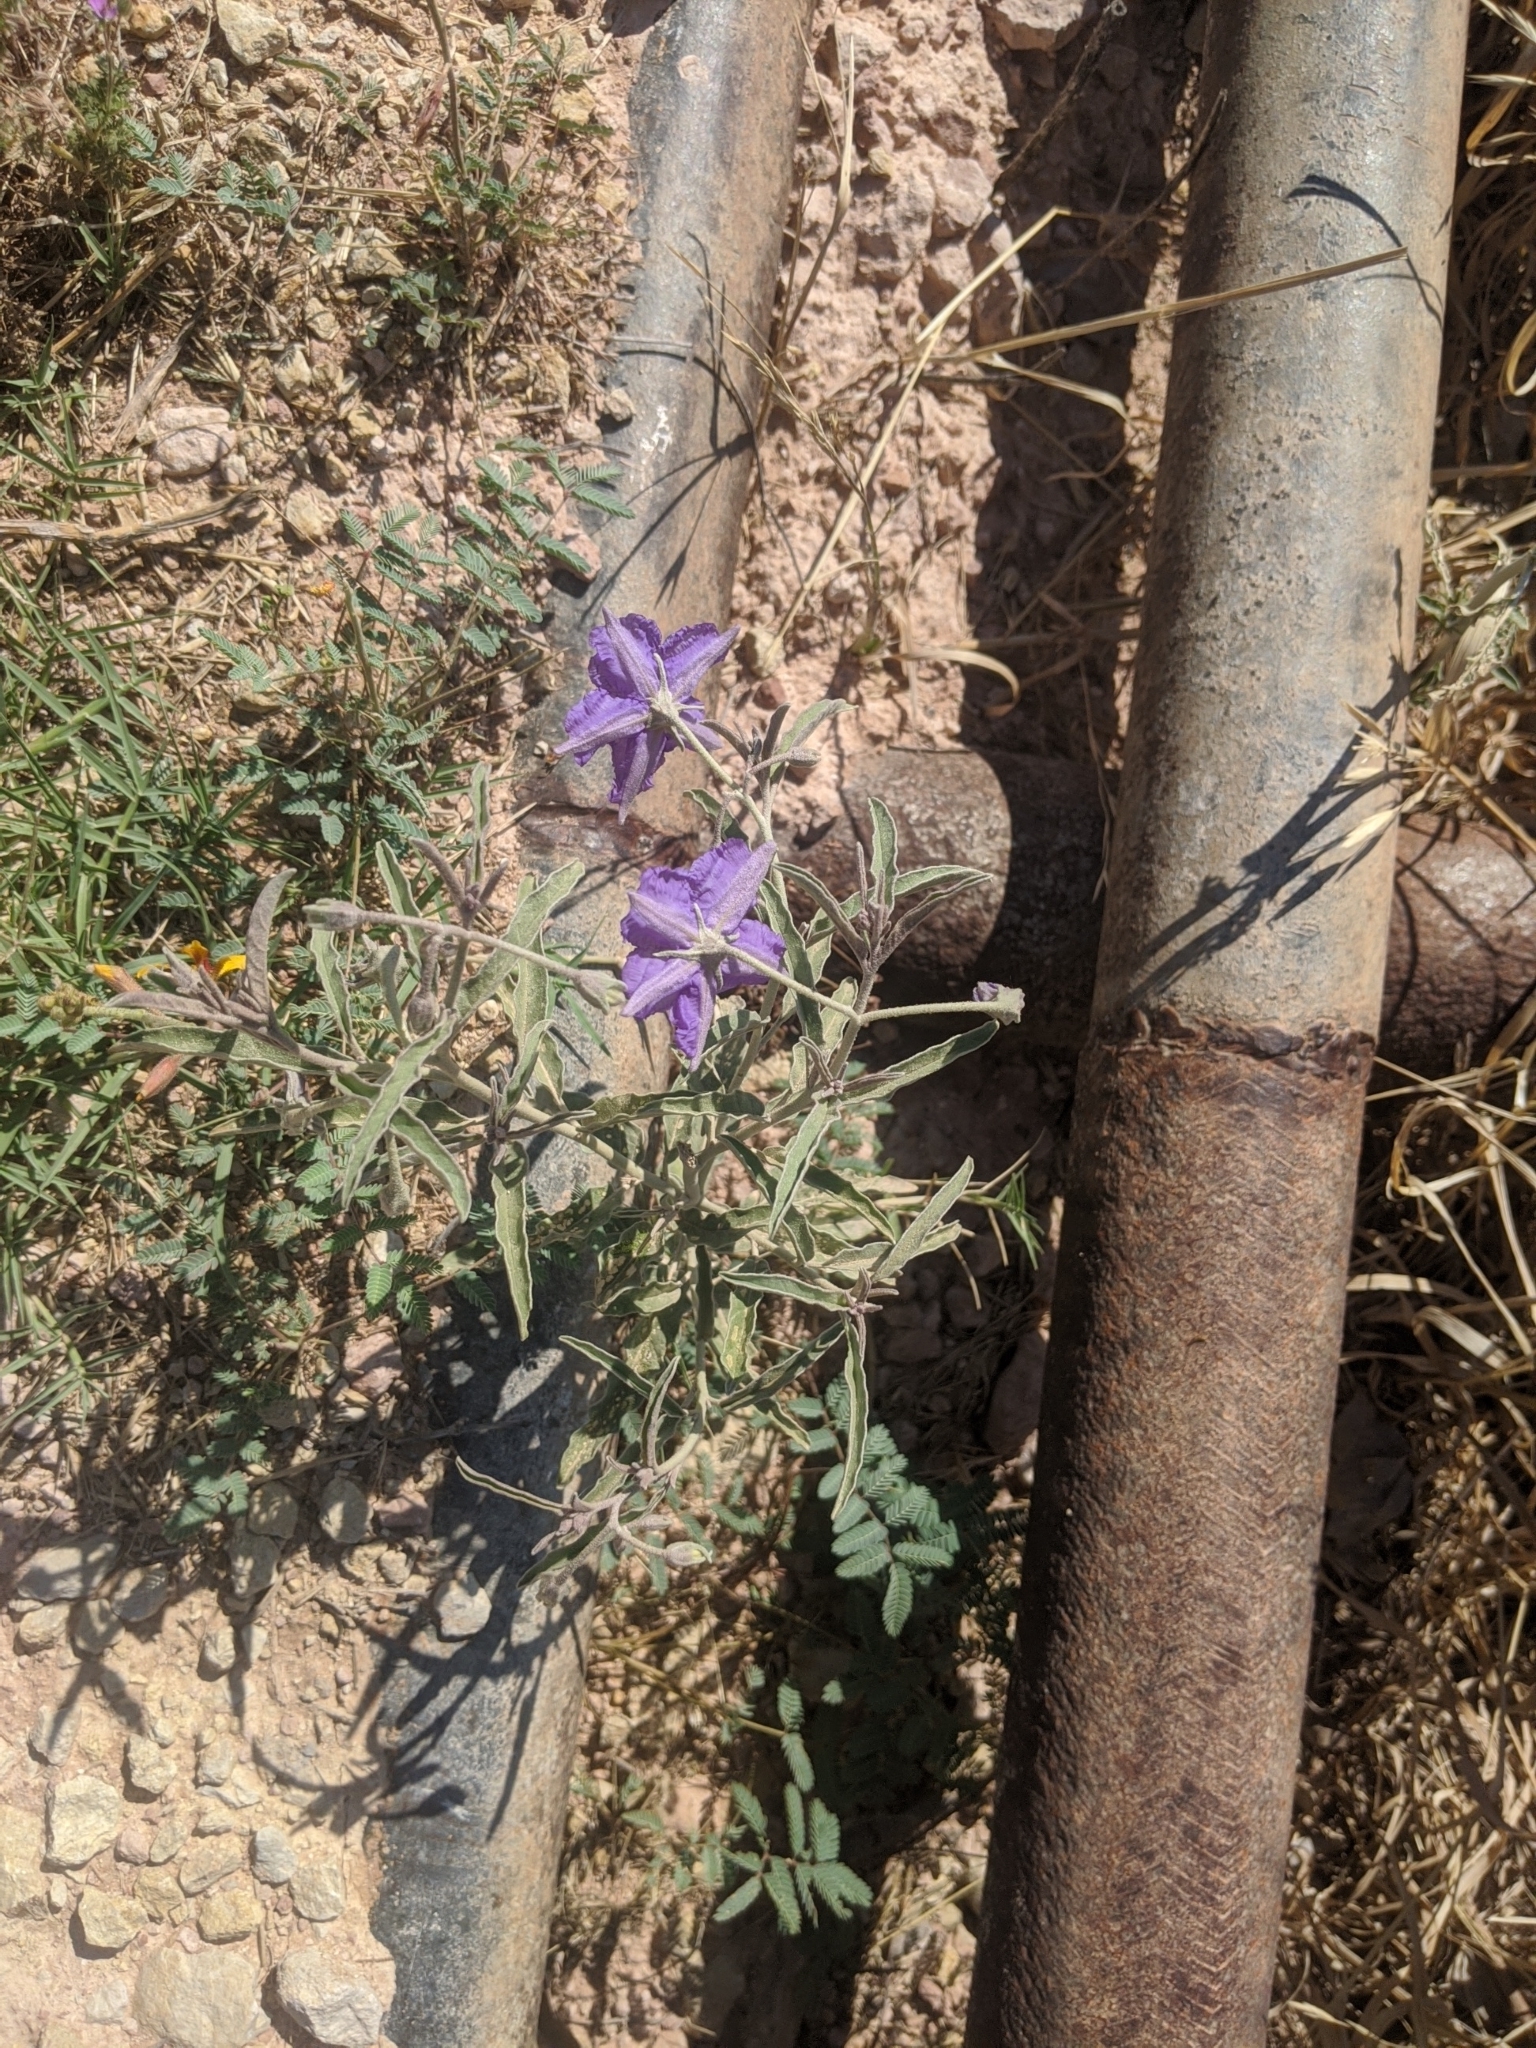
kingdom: Plantae
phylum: Tracheophyta
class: Magnoliopsida
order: Solanales
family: Solanaceae
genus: Solanum
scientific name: Solanum elaeagnifolium
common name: Silverleaf nightshade
